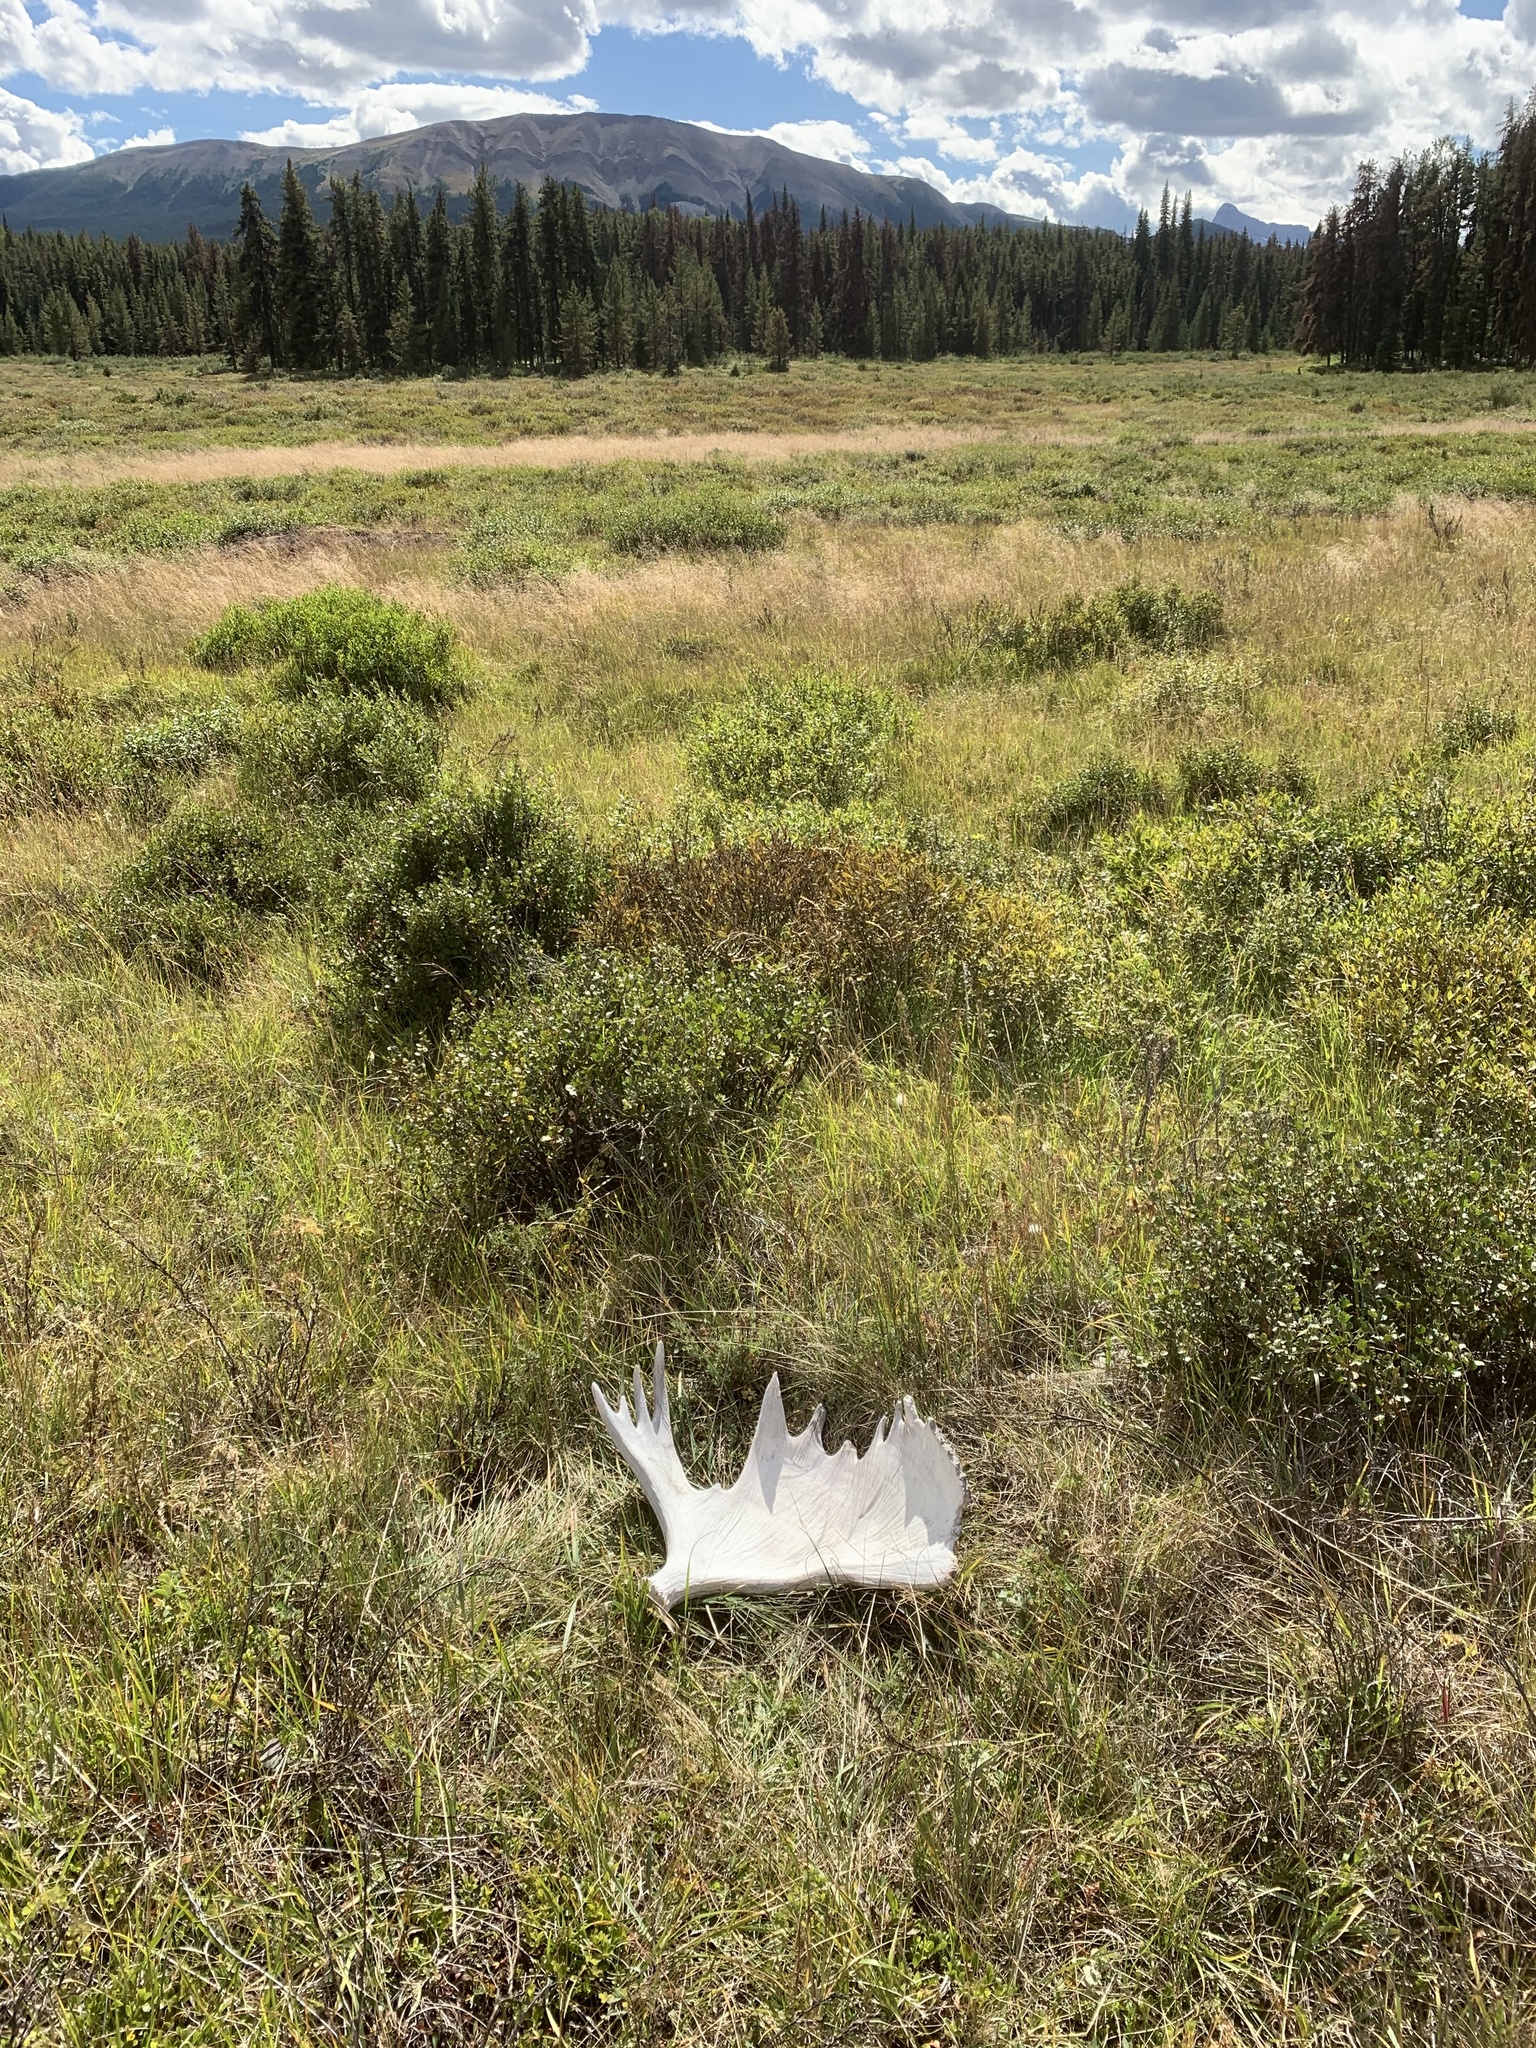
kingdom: Animalia
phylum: Chordata
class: Mammalia
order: Artiodactyla
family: Cervidae
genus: Alces
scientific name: Alces americanus
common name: Moose
